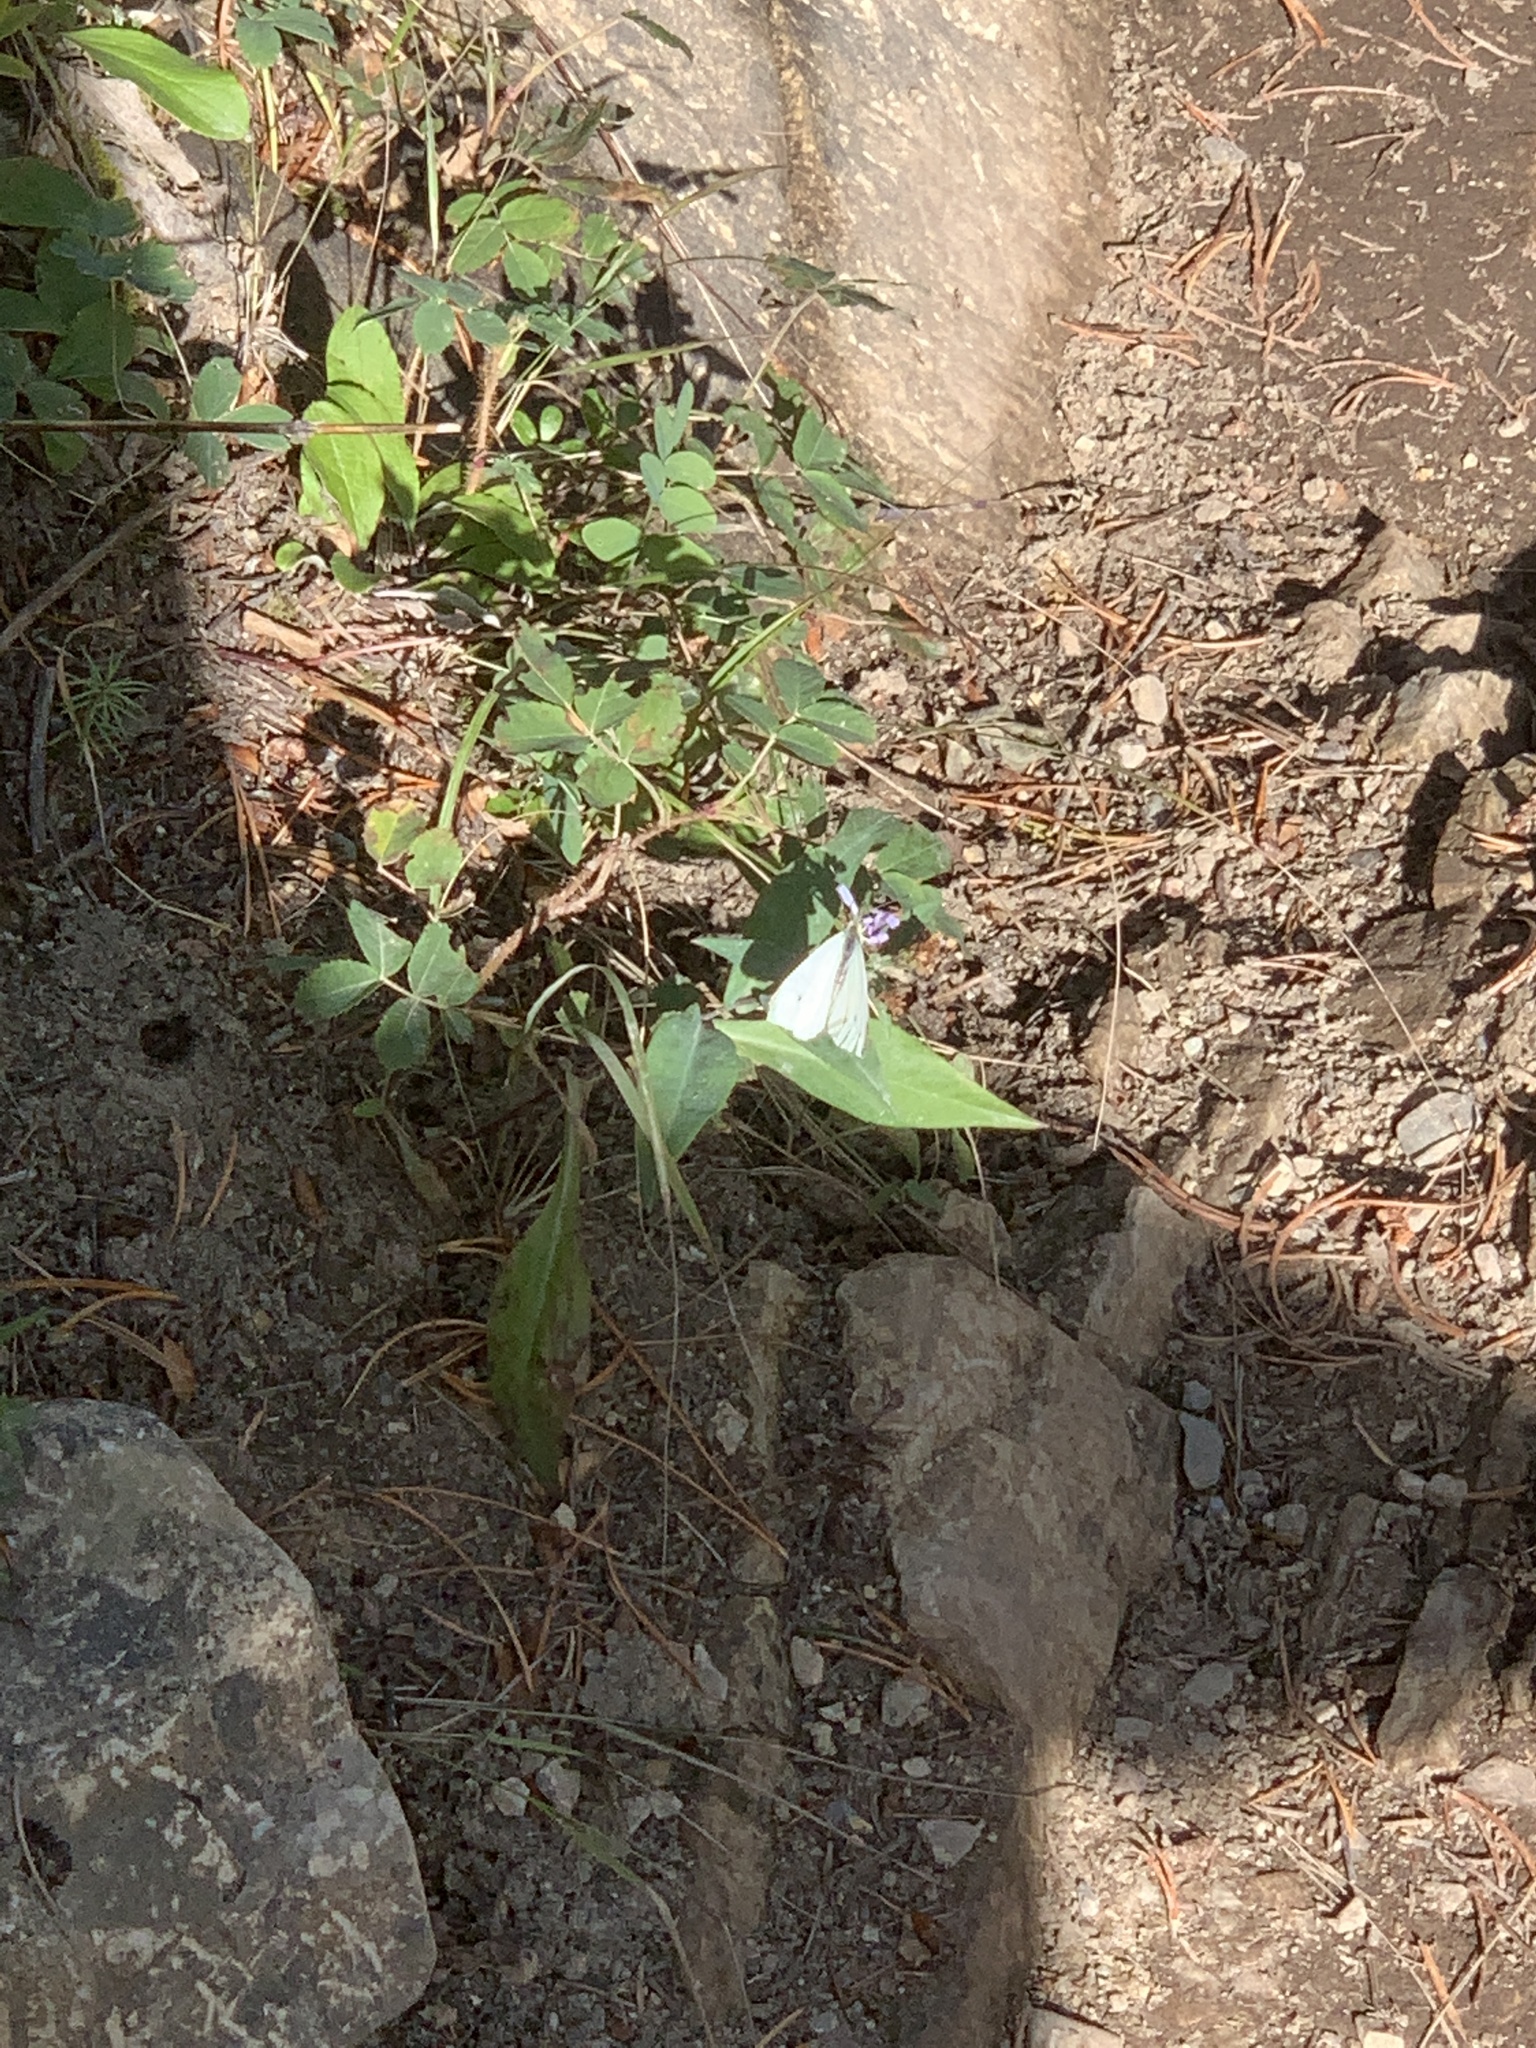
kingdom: Animalia
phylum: Arthropoda
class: Insecta
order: Lepidoptera
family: Pieridae
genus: Pieris
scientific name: Pieris rapae
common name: Small white
